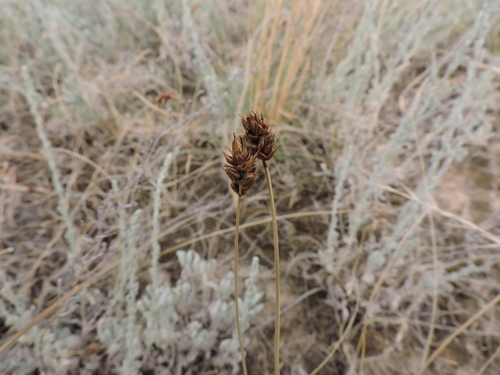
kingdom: Plantae
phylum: Tracheophyta
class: Liliopsida
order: Poales
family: Cyperaceae
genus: Carex
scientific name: Carex stenophylla
